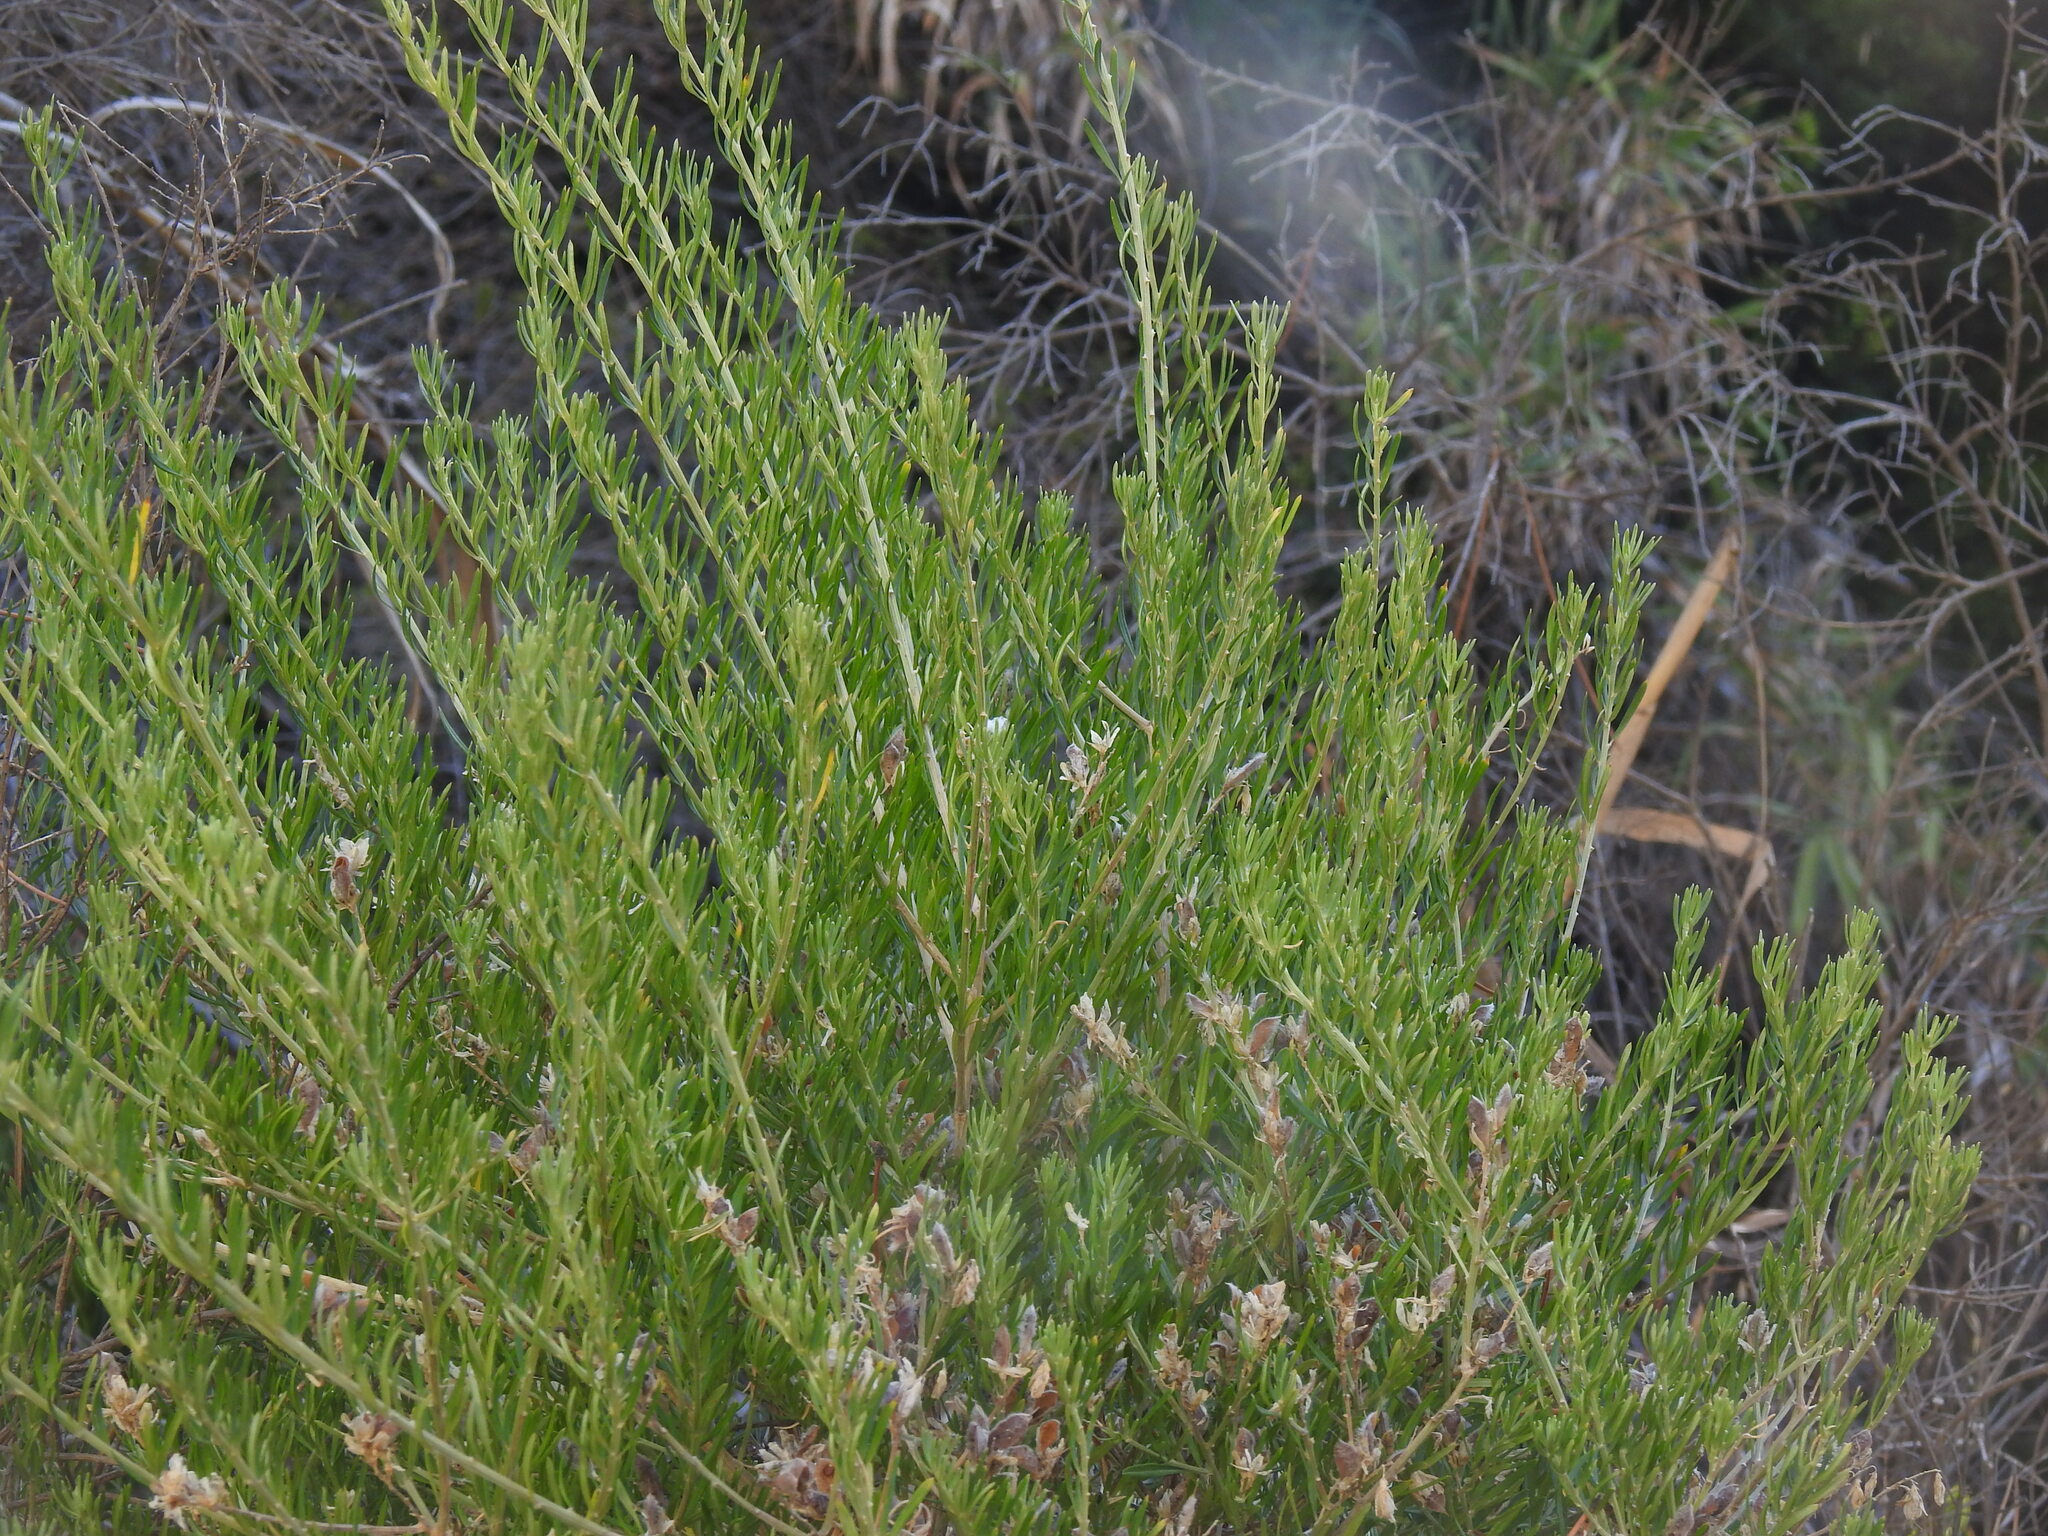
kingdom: Plantae
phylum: Tracheophyta
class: Magnoliopsida
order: Fabales
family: Fabaceae
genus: Genista
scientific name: Genista linifolia
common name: Mediterranean broom
